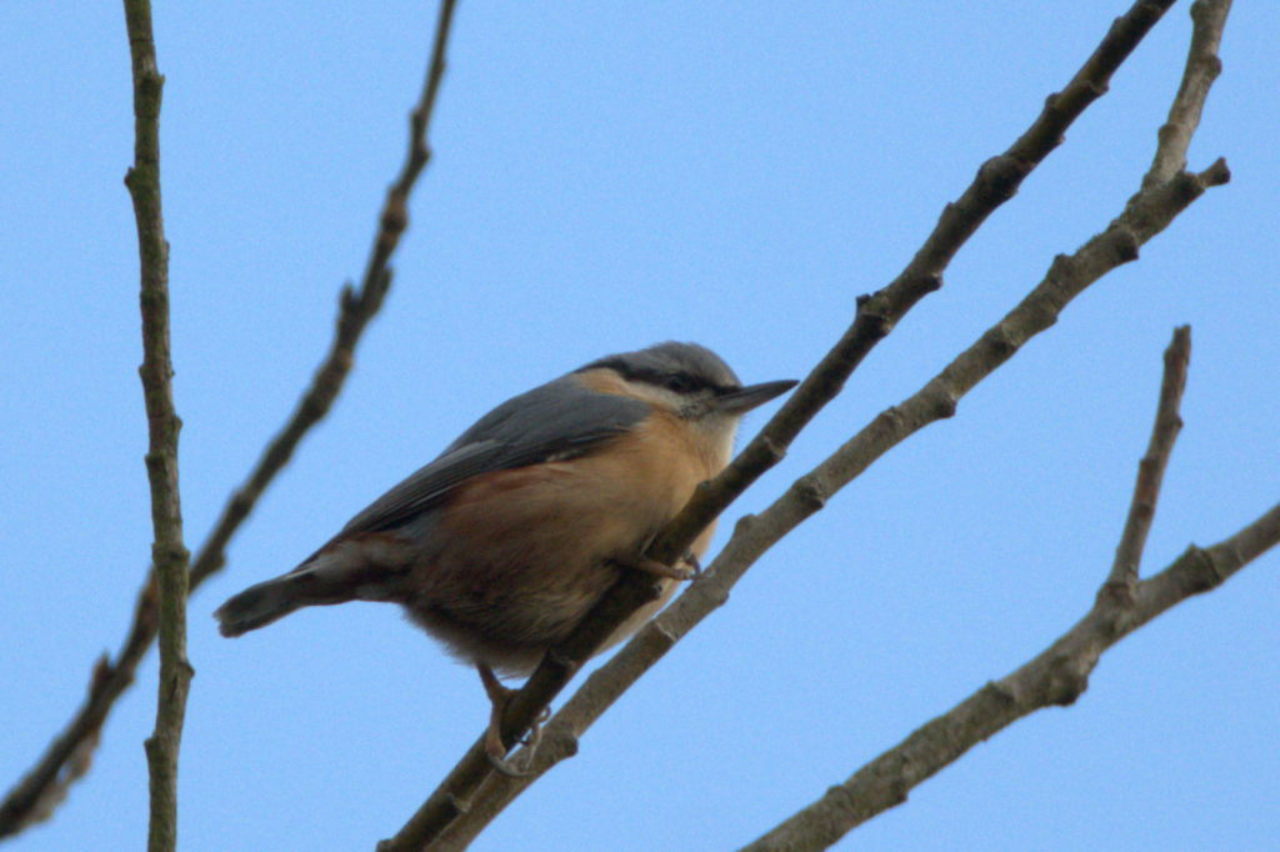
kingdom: Animalia
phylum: Chordata
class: Aves
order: Passeriformes
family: Sittidae
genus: Sitta
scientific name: Sitta europaea
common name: Eurasian nuthatch
